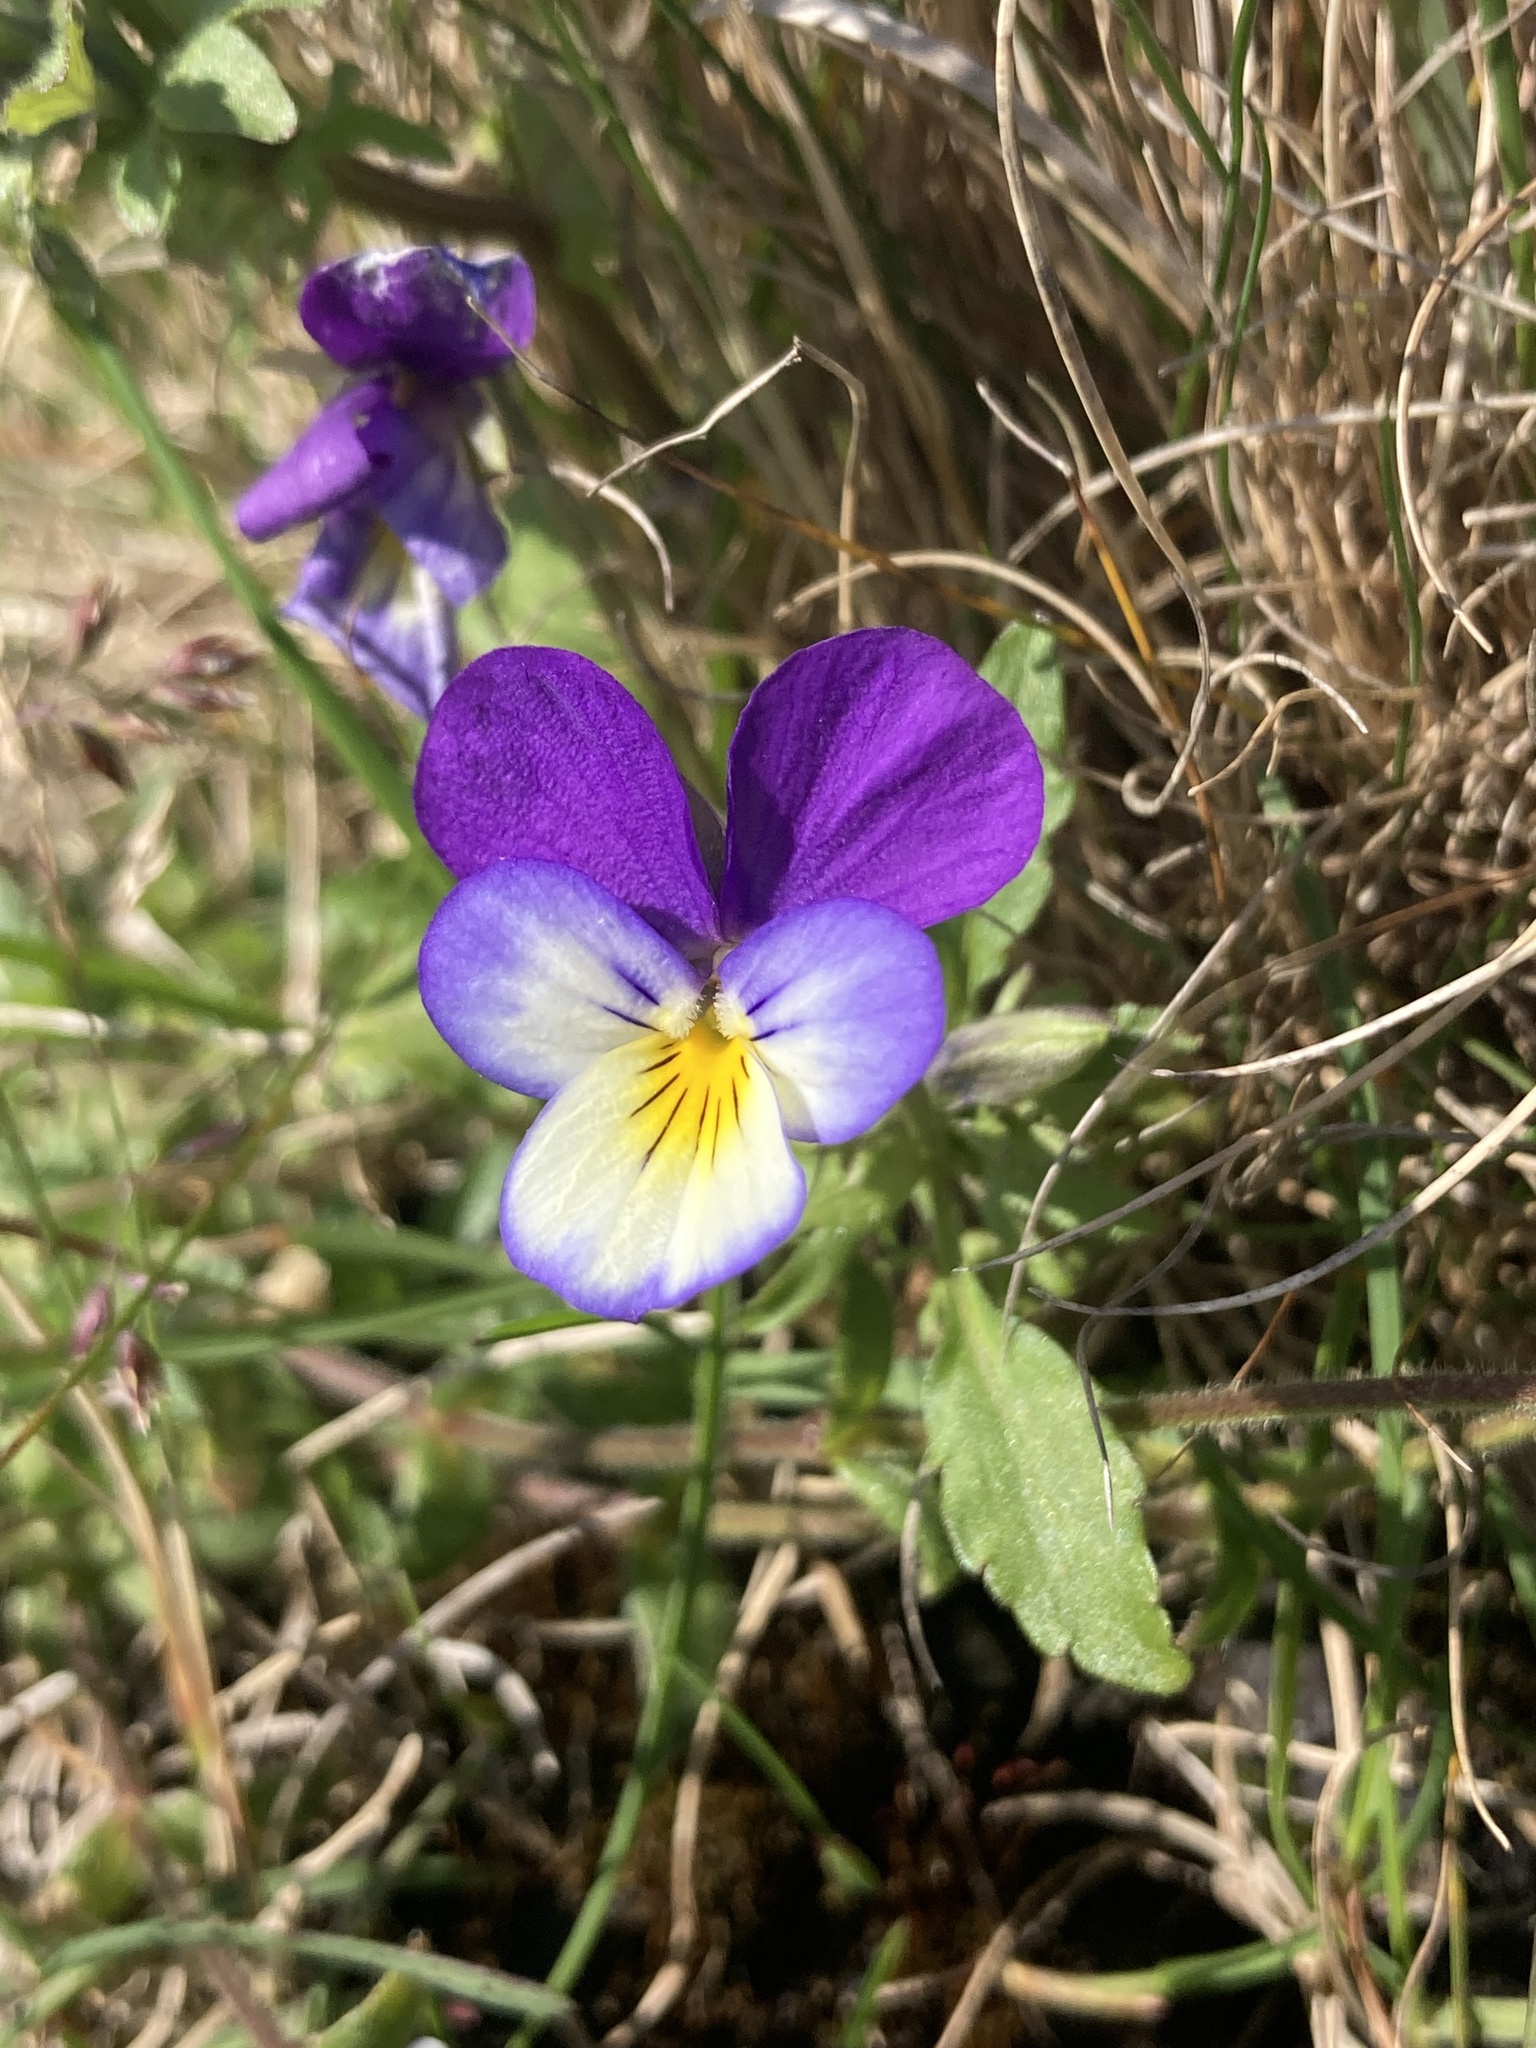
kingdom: Plantae
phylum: Tracheophyta
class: Magnoliopsida
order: Malpighiales
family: Violaceae
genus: Viola
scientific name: Viola tricolor
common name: Pansy
